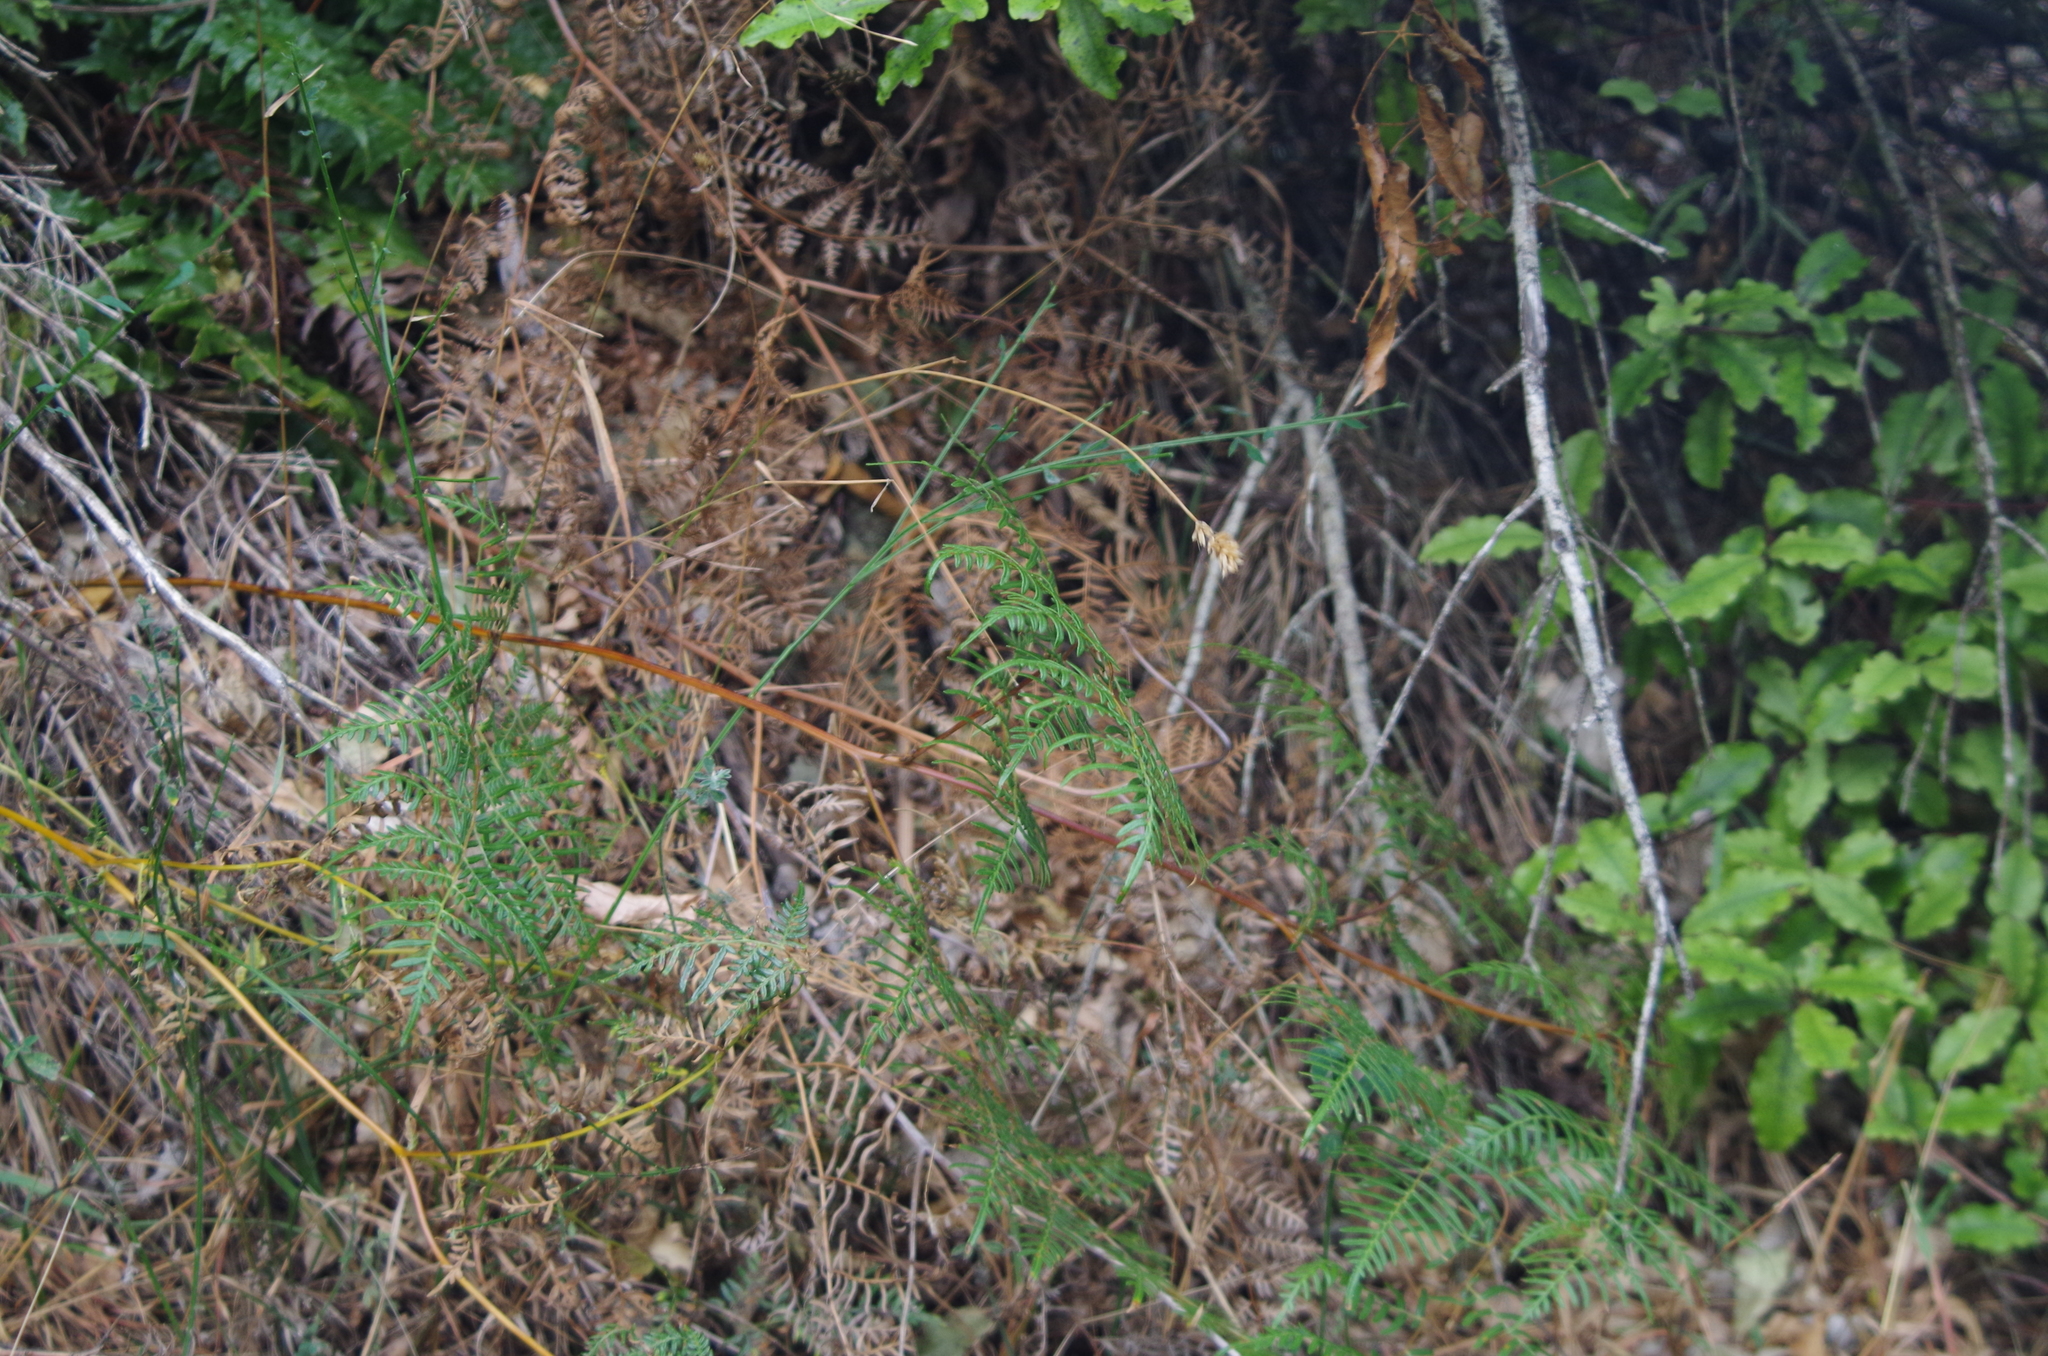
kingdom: Plantae
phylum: Tracheophyta
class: Polypodiopsida
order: Polypodiales
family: Dennstaedtiaceae
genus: Pteridium
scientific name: Pteridium esculentum
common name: Bracken fern
